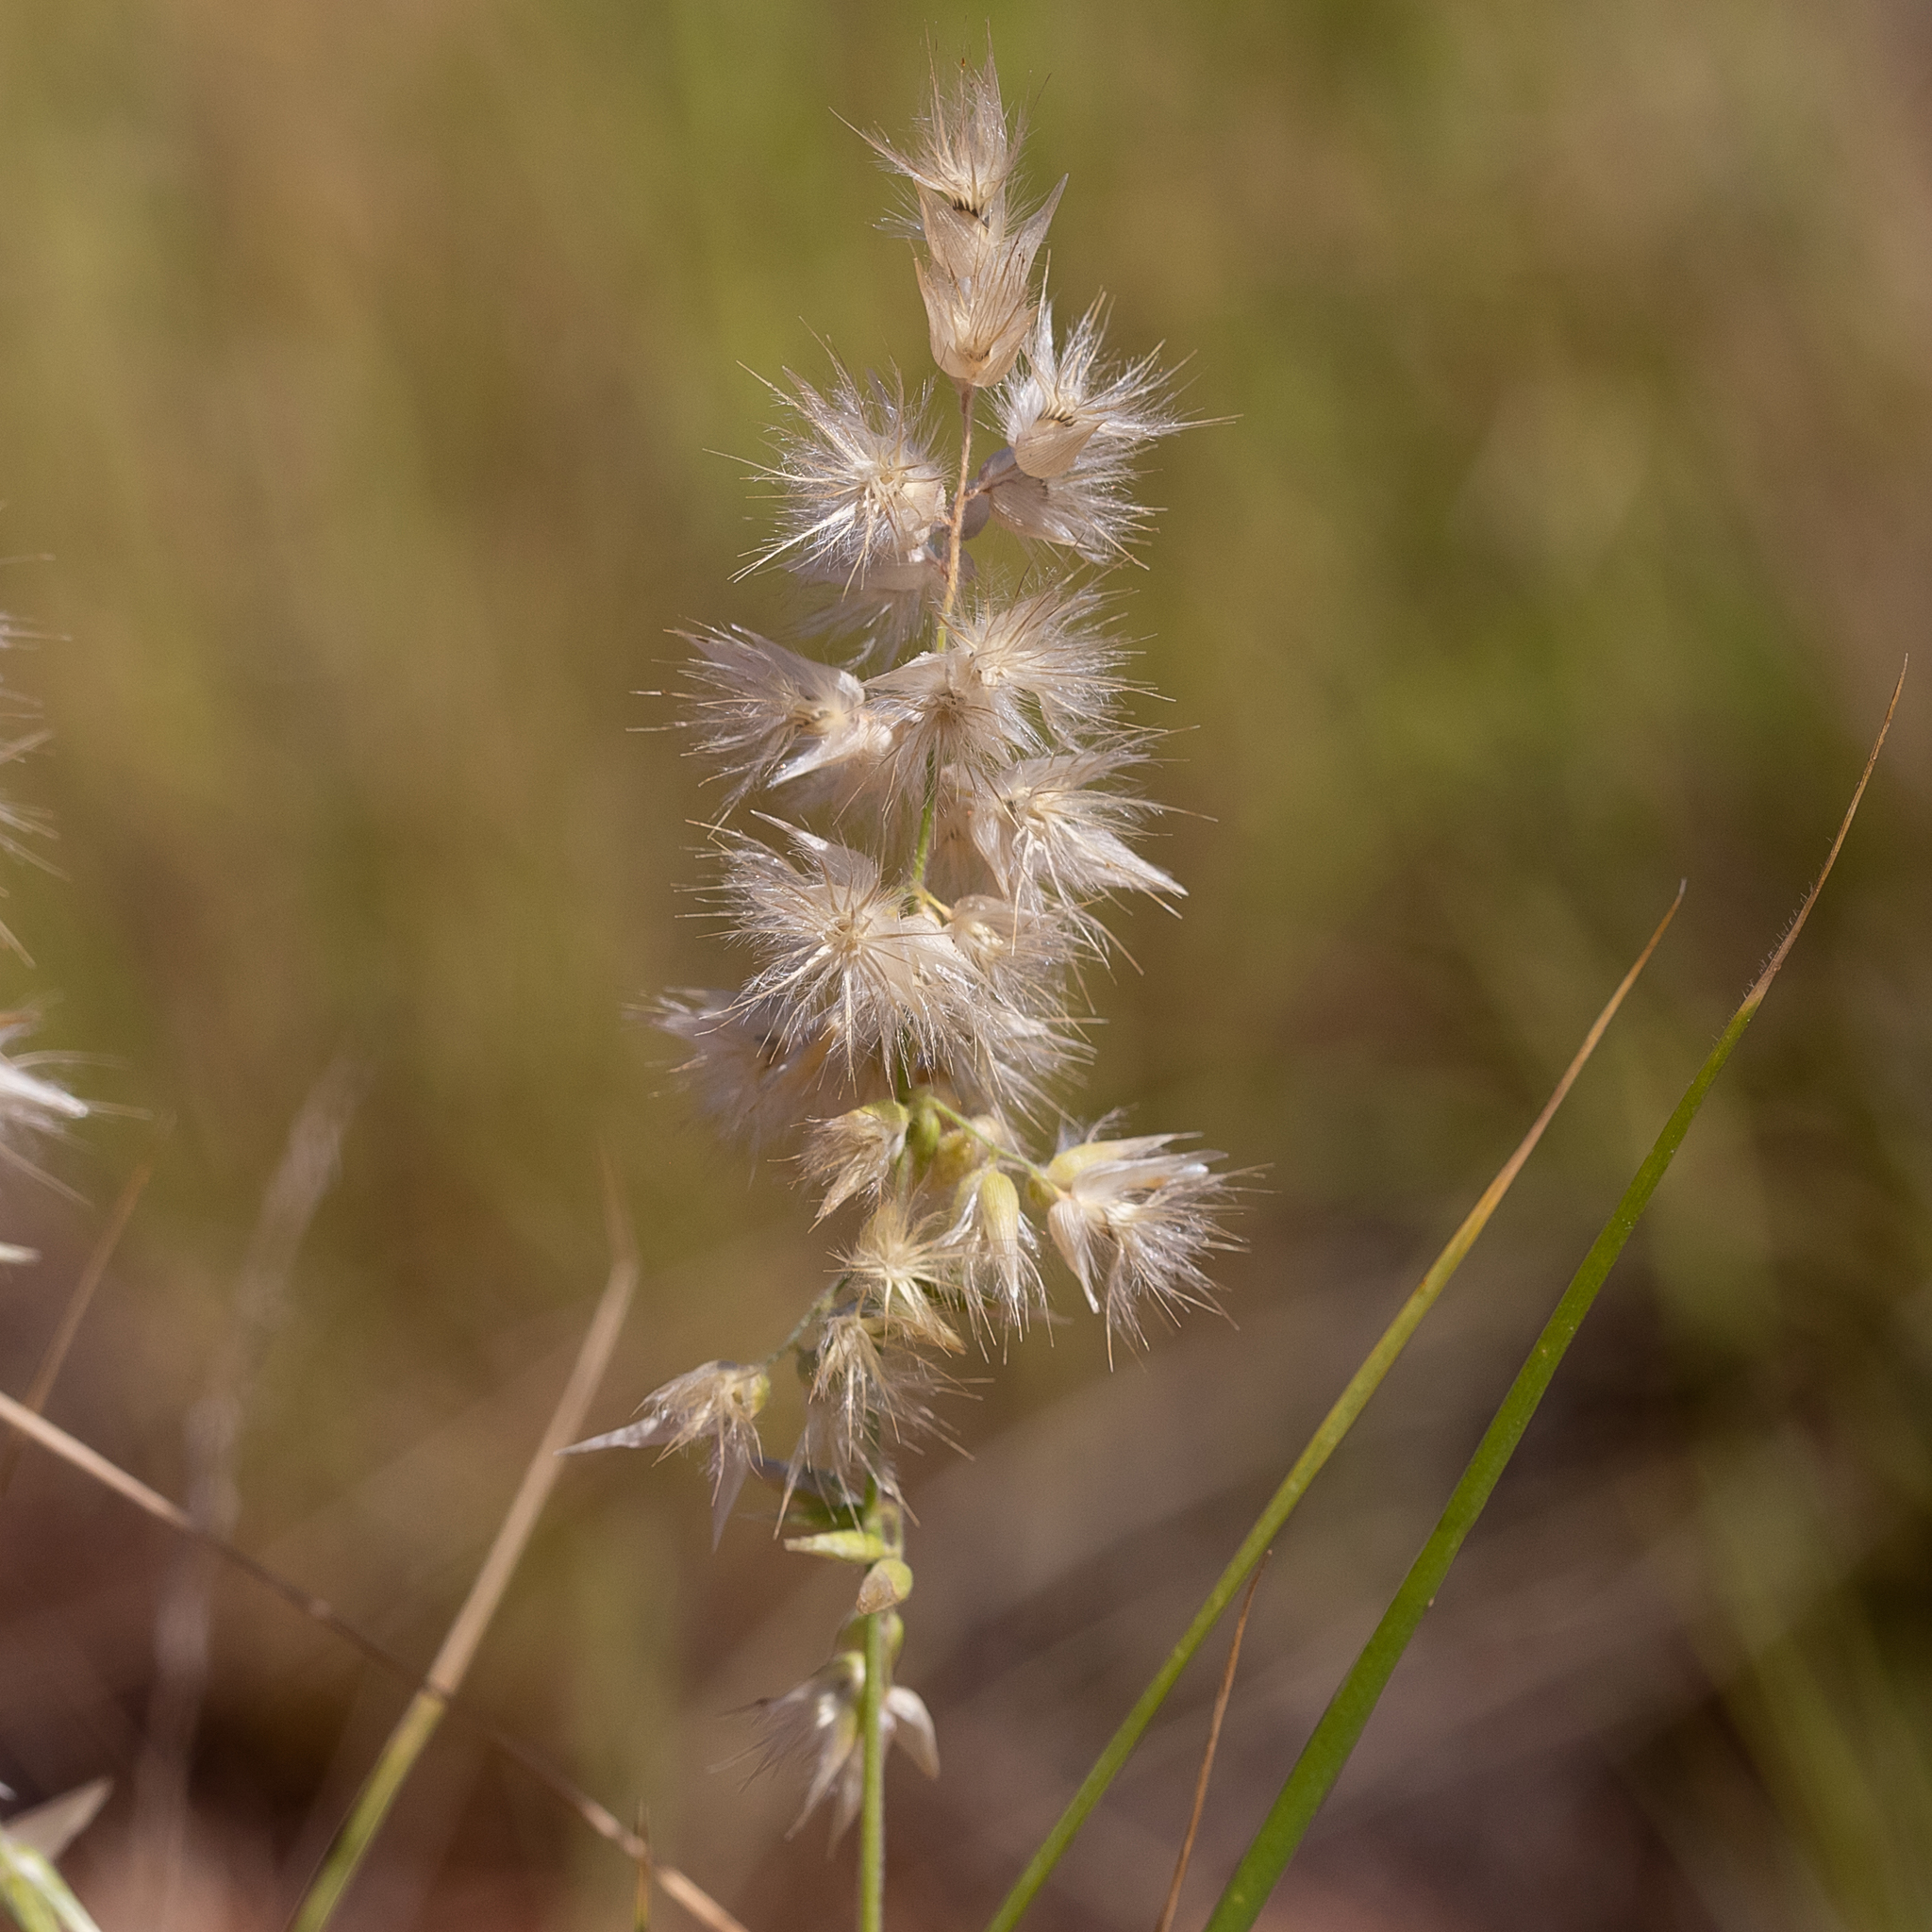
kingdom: Plantae
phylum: Tracheophyta
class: Liliopsida
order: Poales
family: Poaceae
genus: Enneapogon
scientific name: Enneapogon avenaceus
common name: Hairy oat grass
